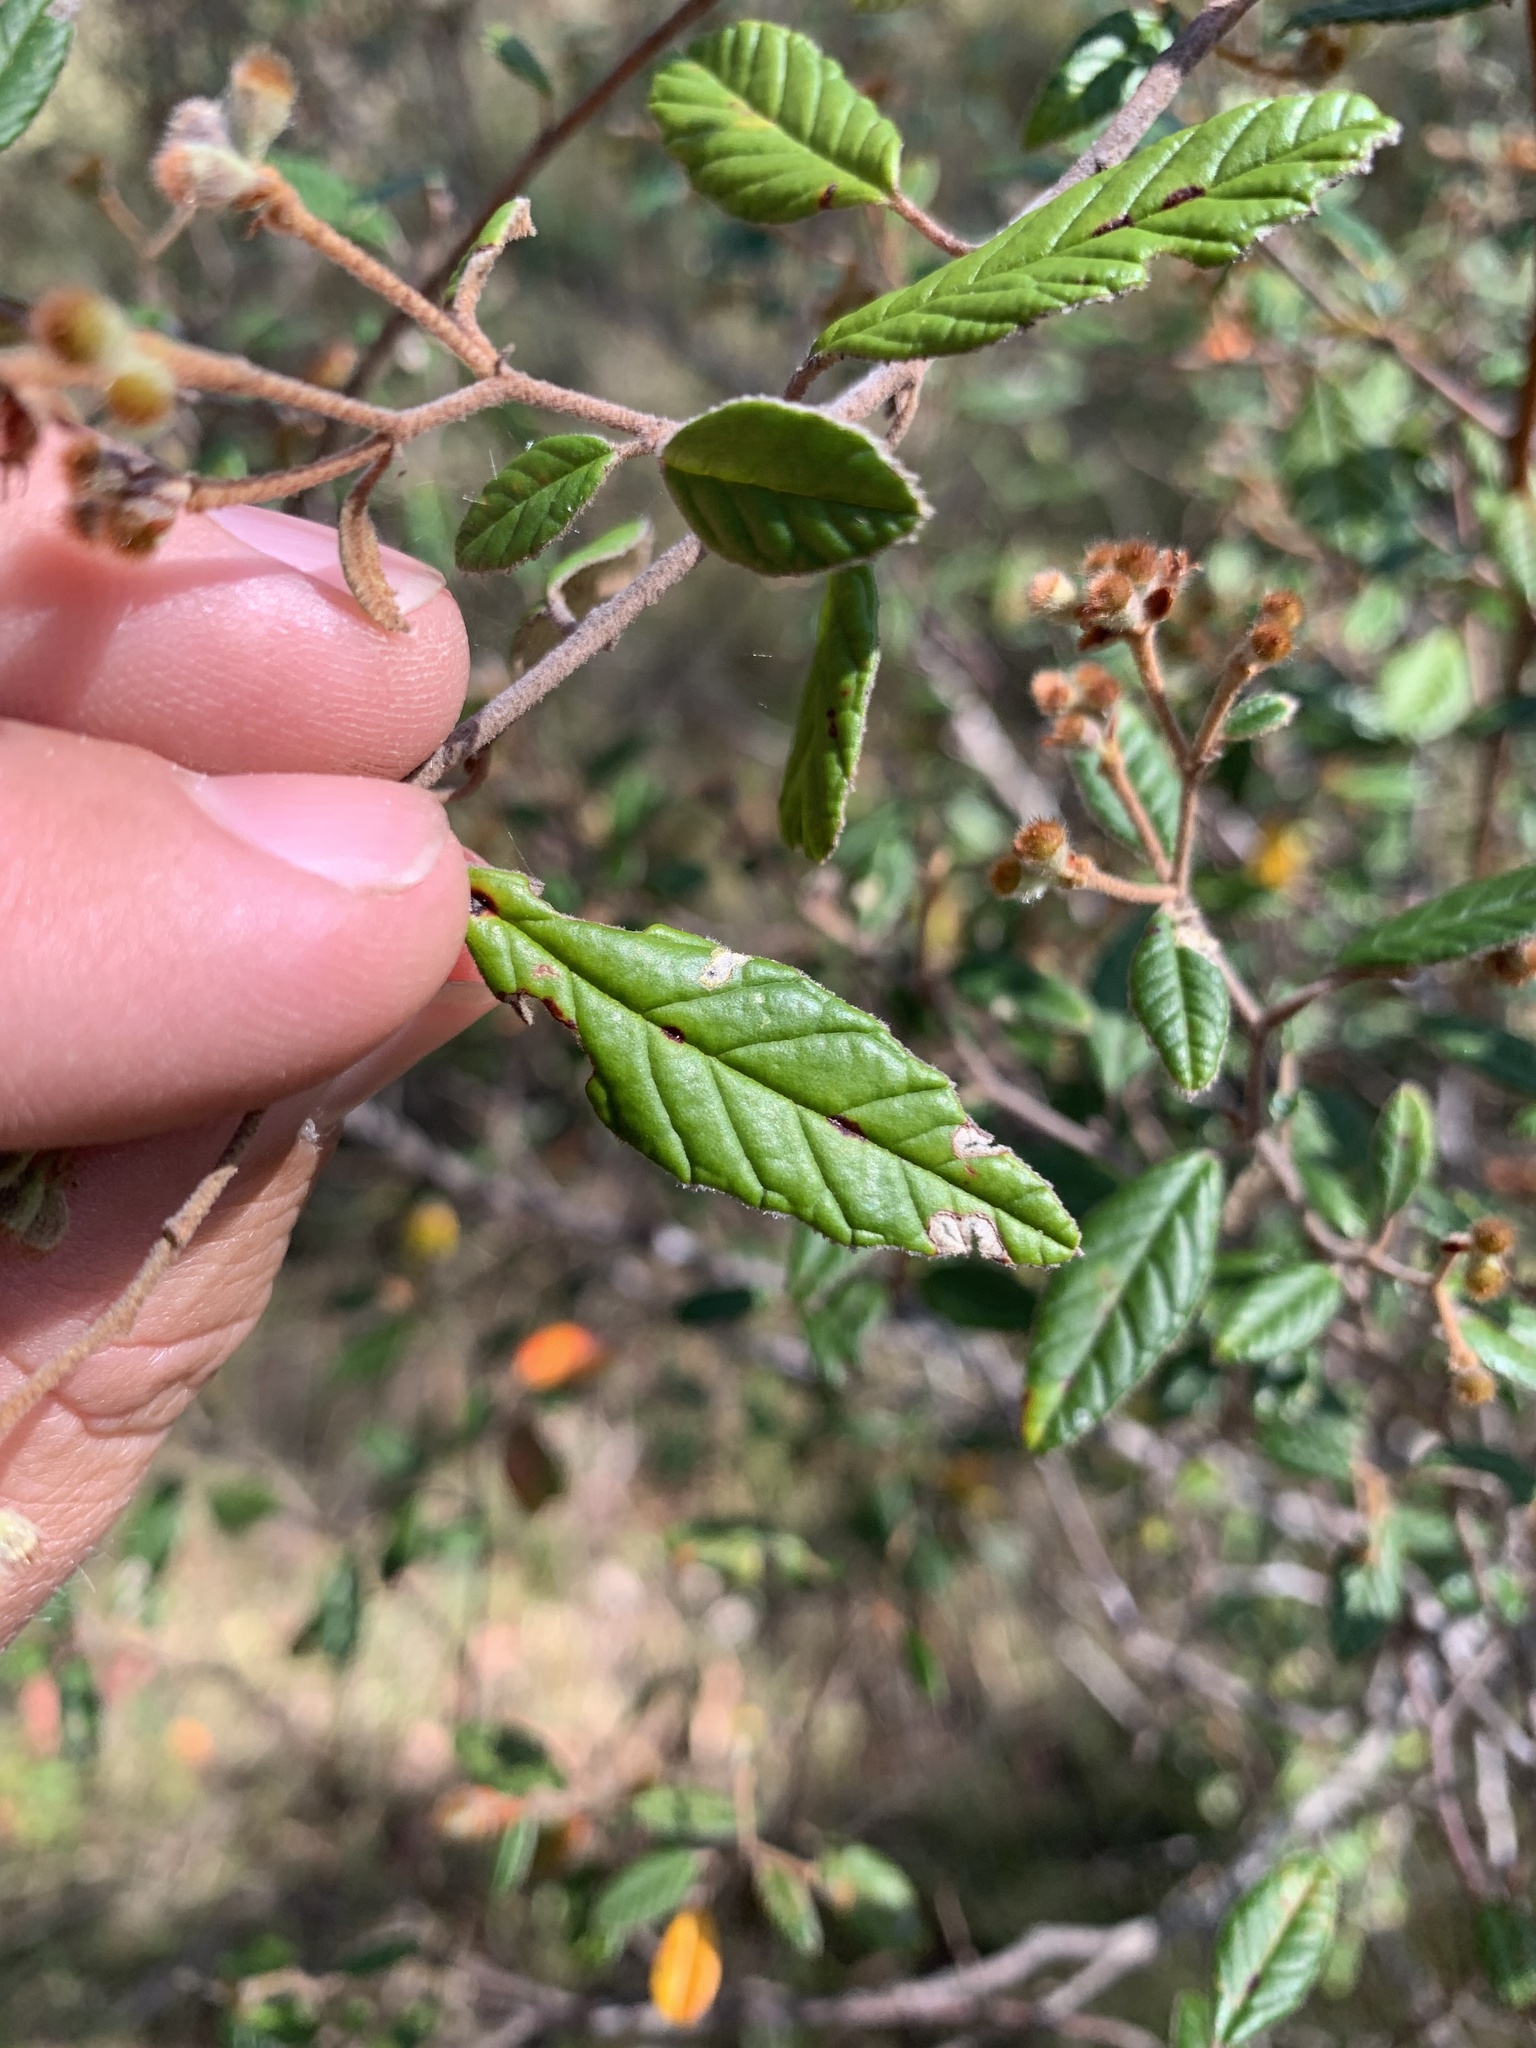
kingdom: Plantae
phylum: Tracheophyta
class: Magnoliopsida
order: Rosales
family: Rhamnaceae
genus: Pomaderris
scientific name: Pomaderris betulina
